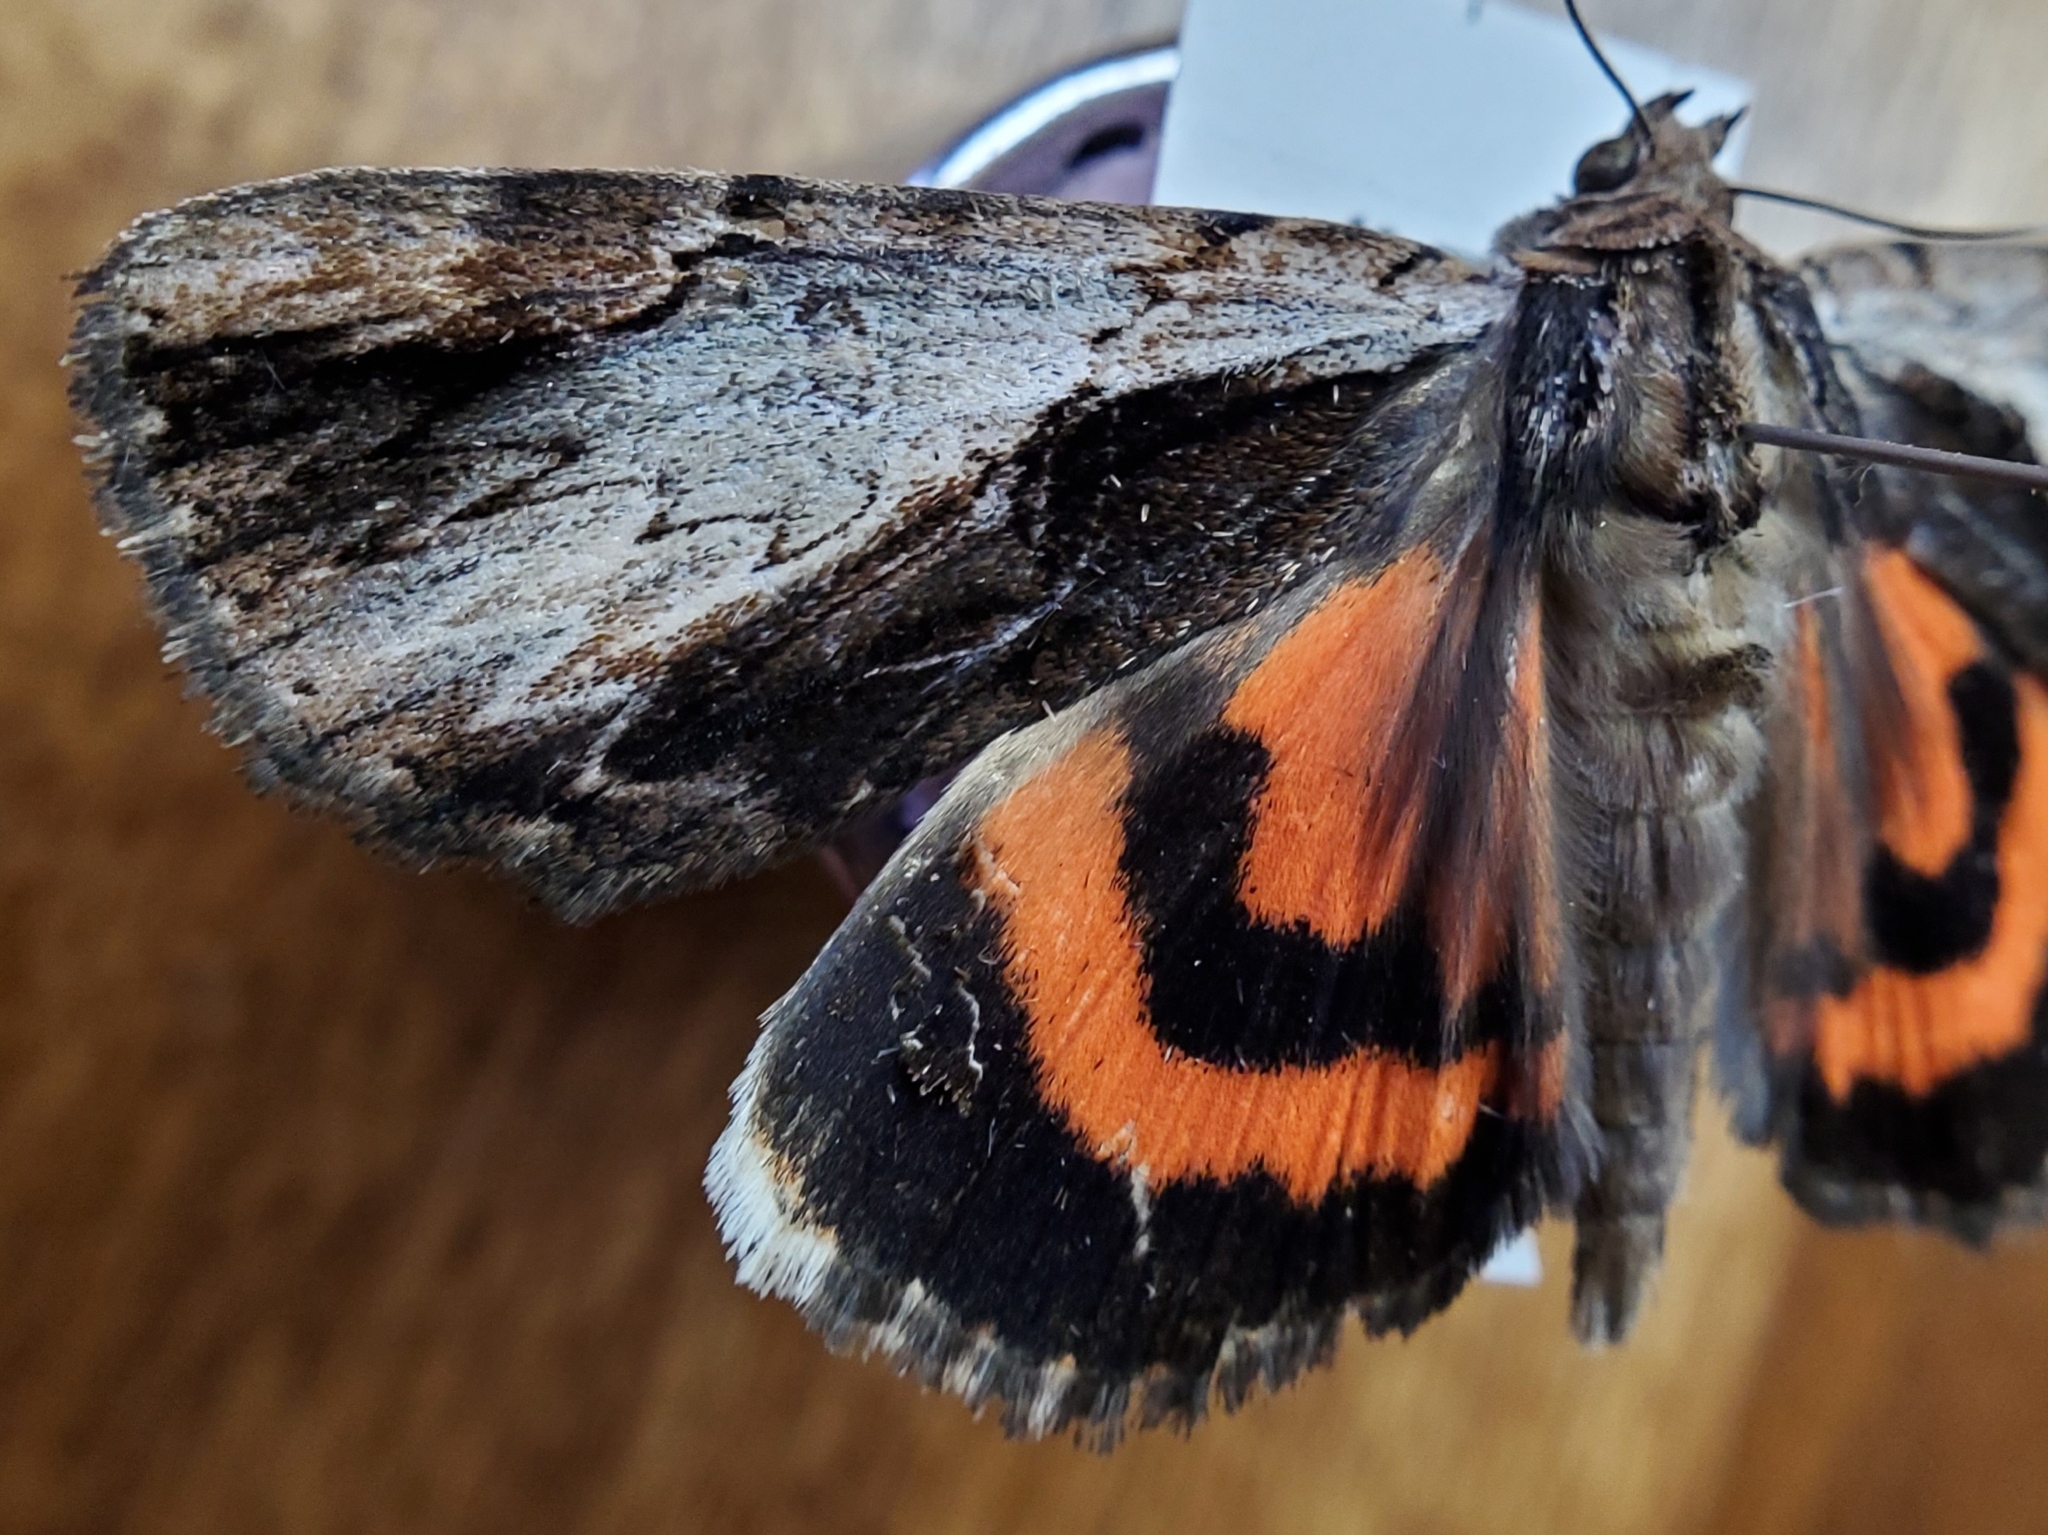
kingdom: Animalia
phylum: Arthropoda
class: Insecta
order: Lepidoptera
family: Erebidae
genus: Catocala
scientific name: Catocala ultronia
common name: Ultronia underwing
